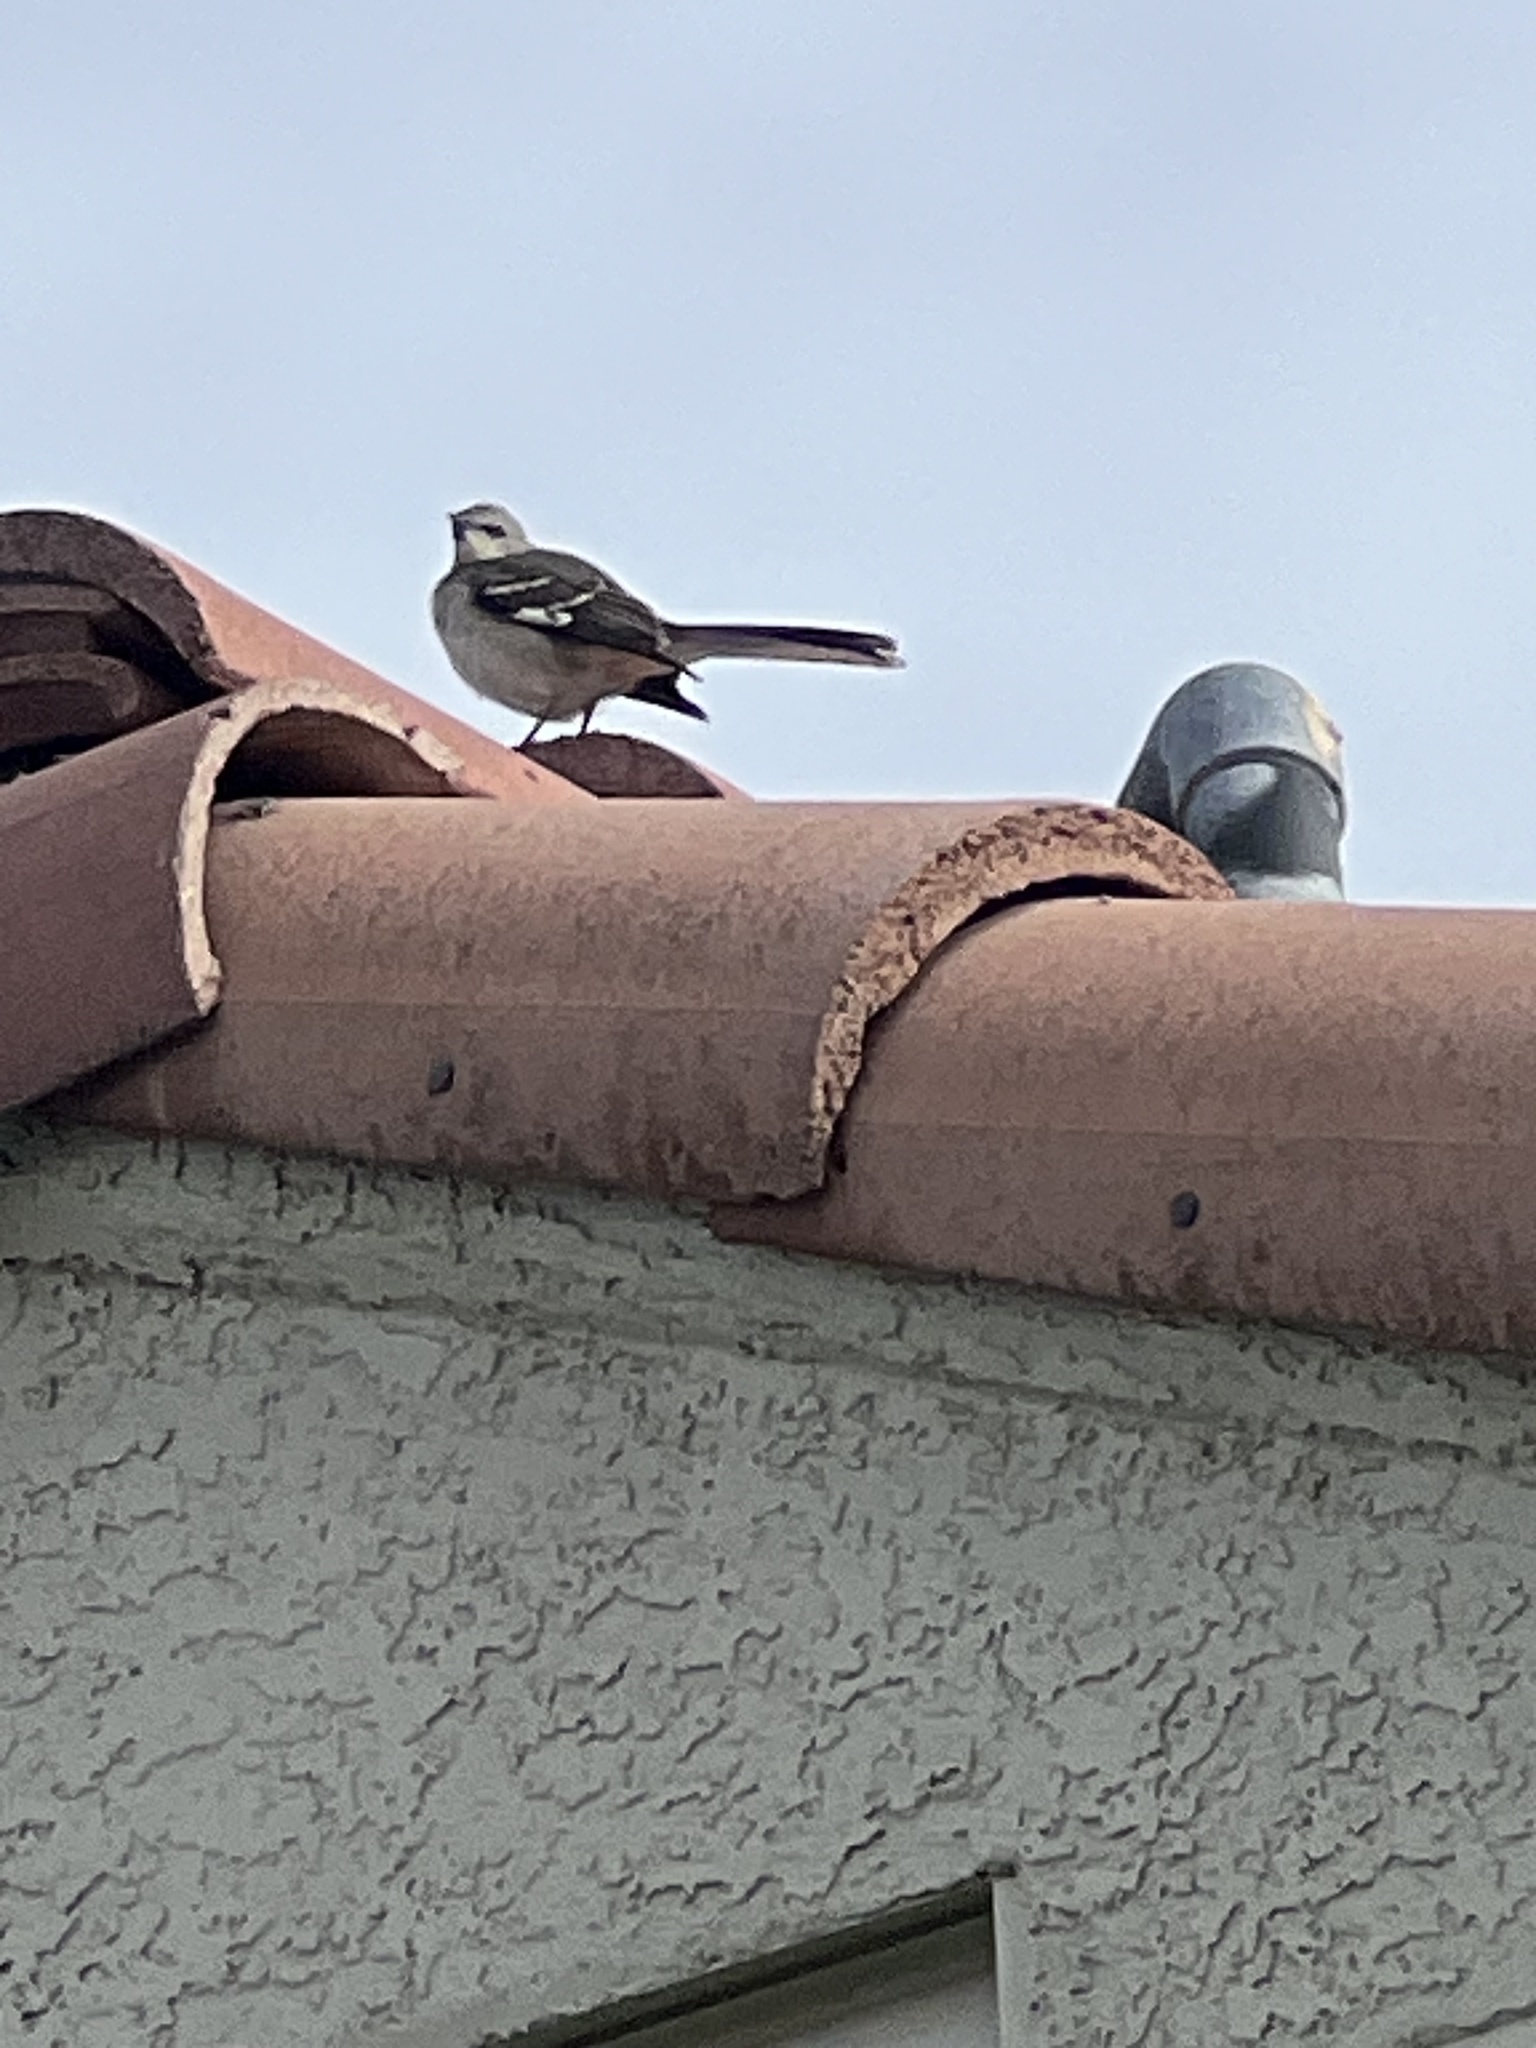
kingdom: Animalia
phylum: Chordata
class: Aves
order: Passeriformes
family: Mimidae
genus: Mimus
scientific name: Mimus polyglottos
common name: Northern mockingbird
